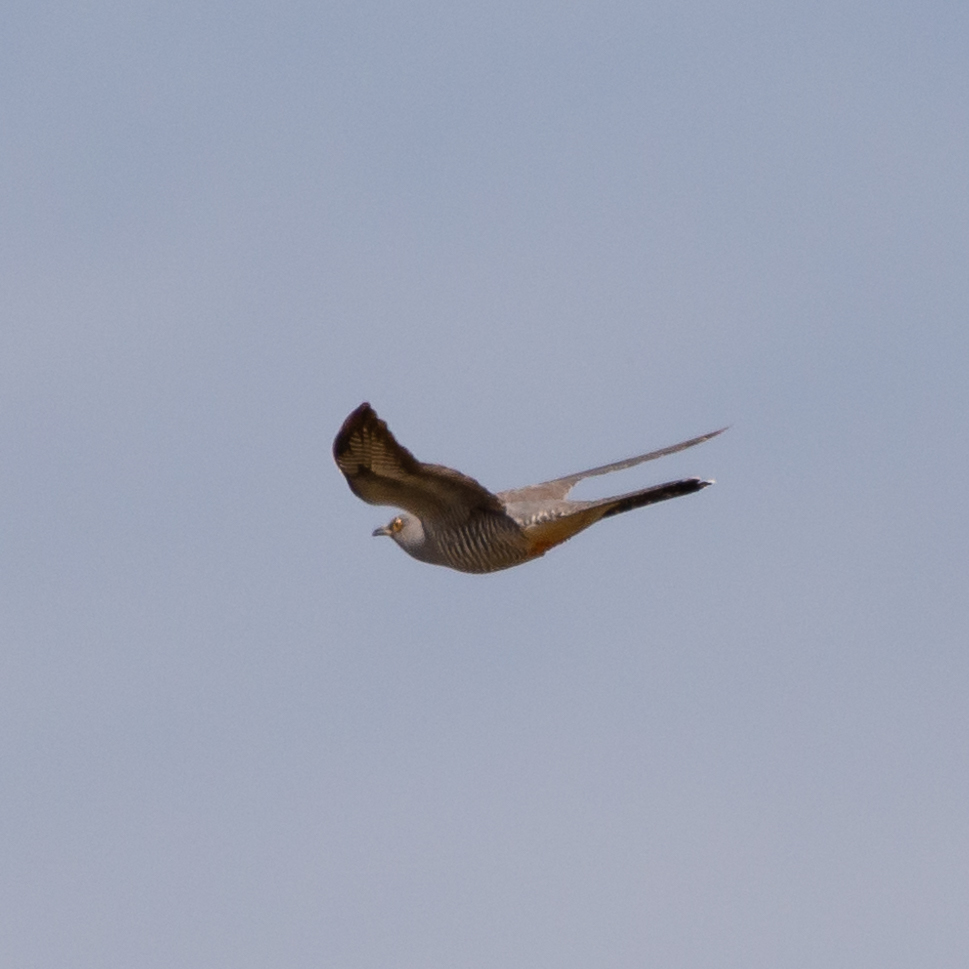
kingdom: Animalia
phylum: Chordata
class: Aves
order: Cuculiformes
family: Cuculidae
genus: Cuculus
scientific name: Cuculus canorus
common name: Common cuckoo
